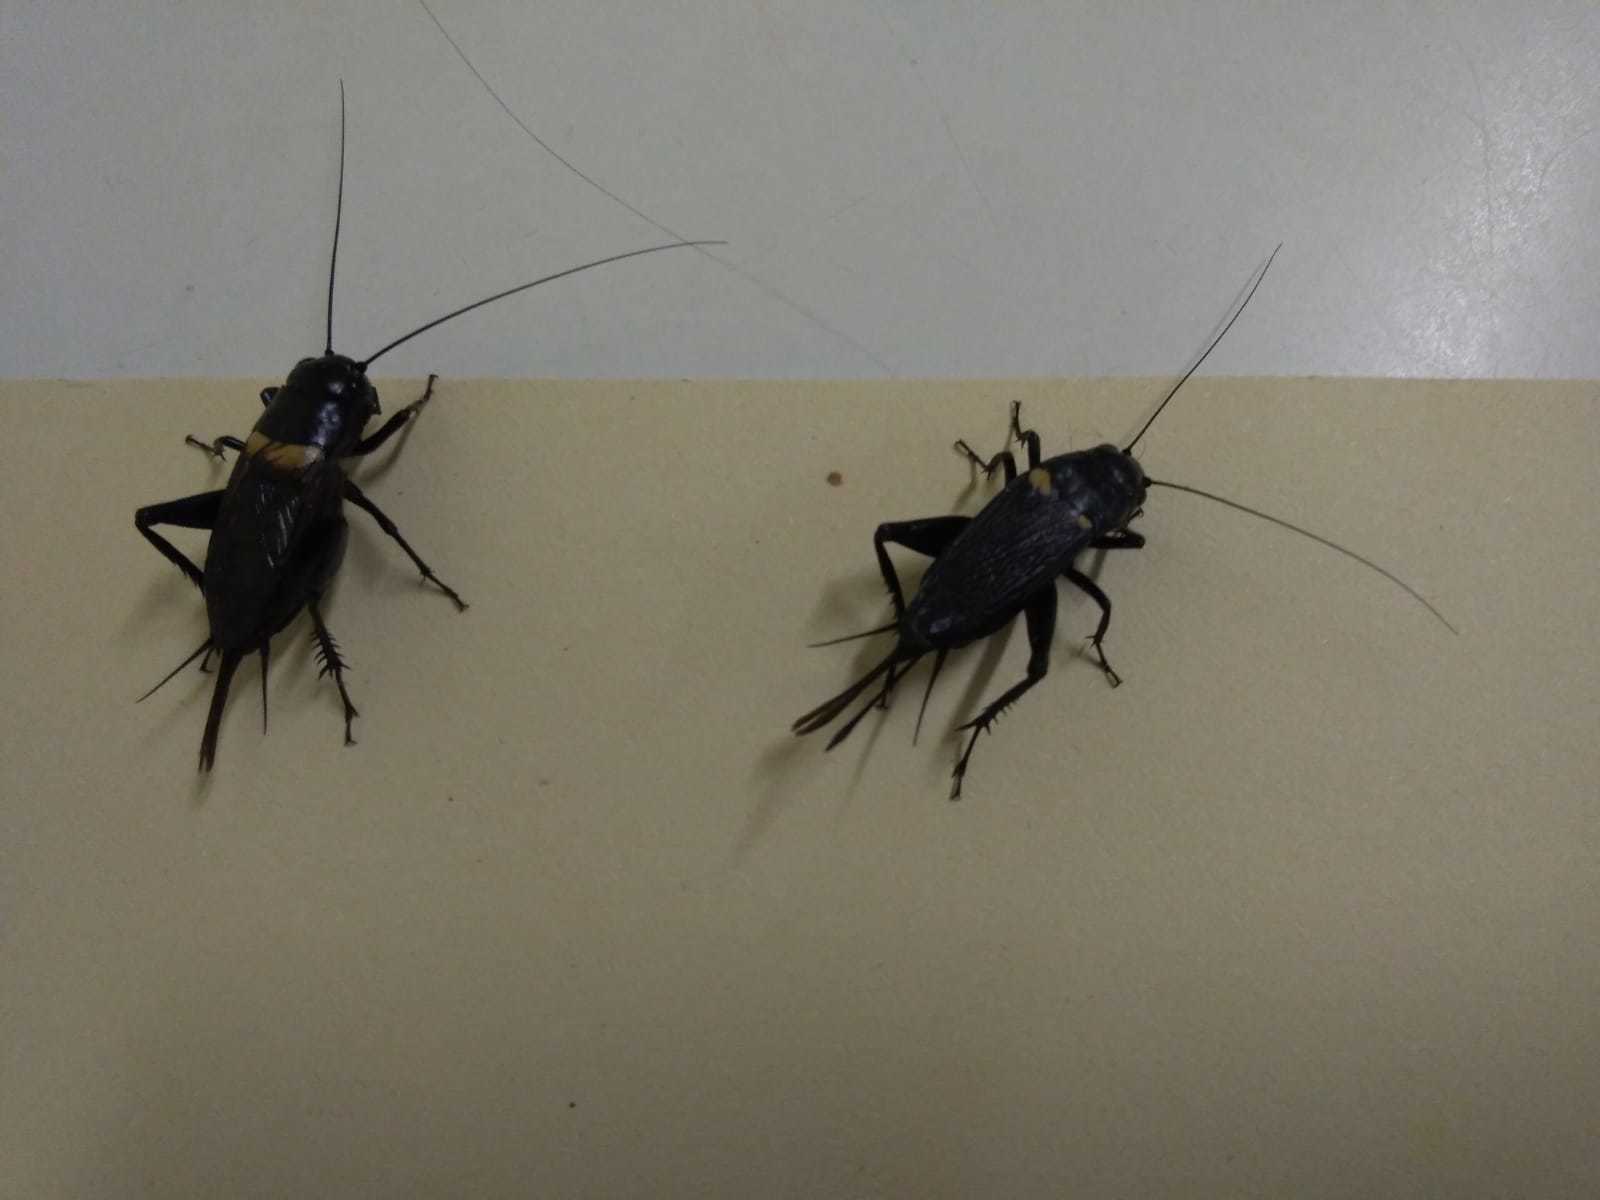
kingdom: Animalia
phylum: Arthropoda
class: Insecta
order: Orthoptera
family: Gryllidae
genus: Gryllus
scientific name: Gryllus bimaculatus
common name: Two-spotted cricket
